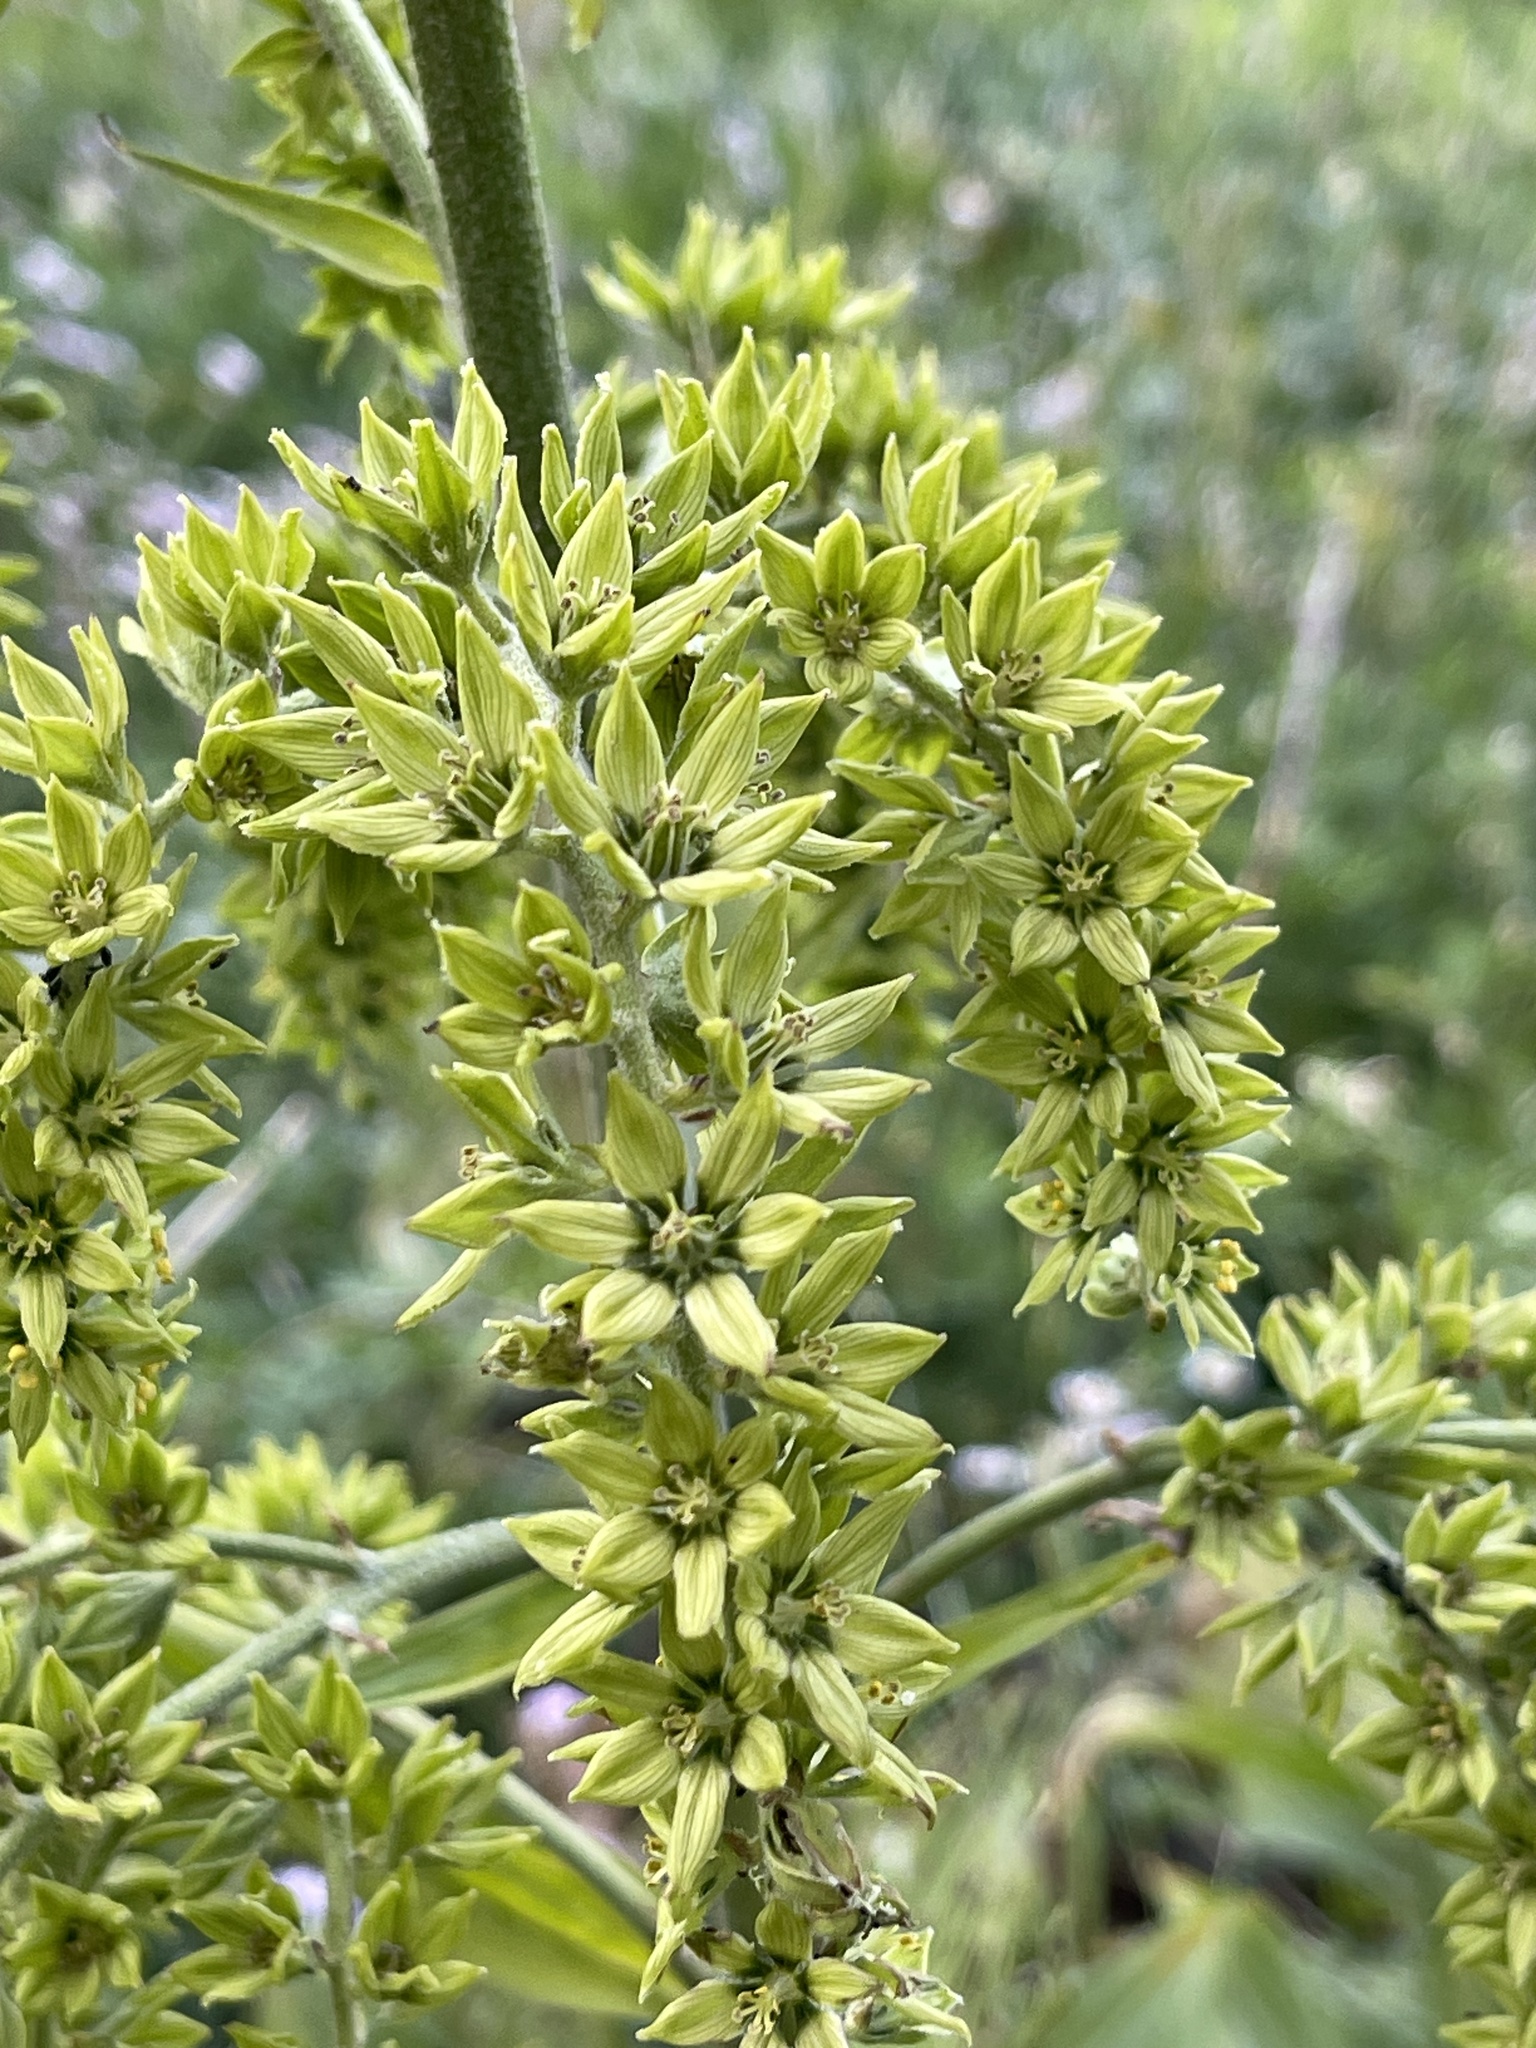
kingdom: Plantae
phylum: Tracheophyta
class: Liliopsida
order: Liliales
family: Melanthiaceae
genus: Veratrum
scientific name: Veratrum viride
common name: American false hellebore
